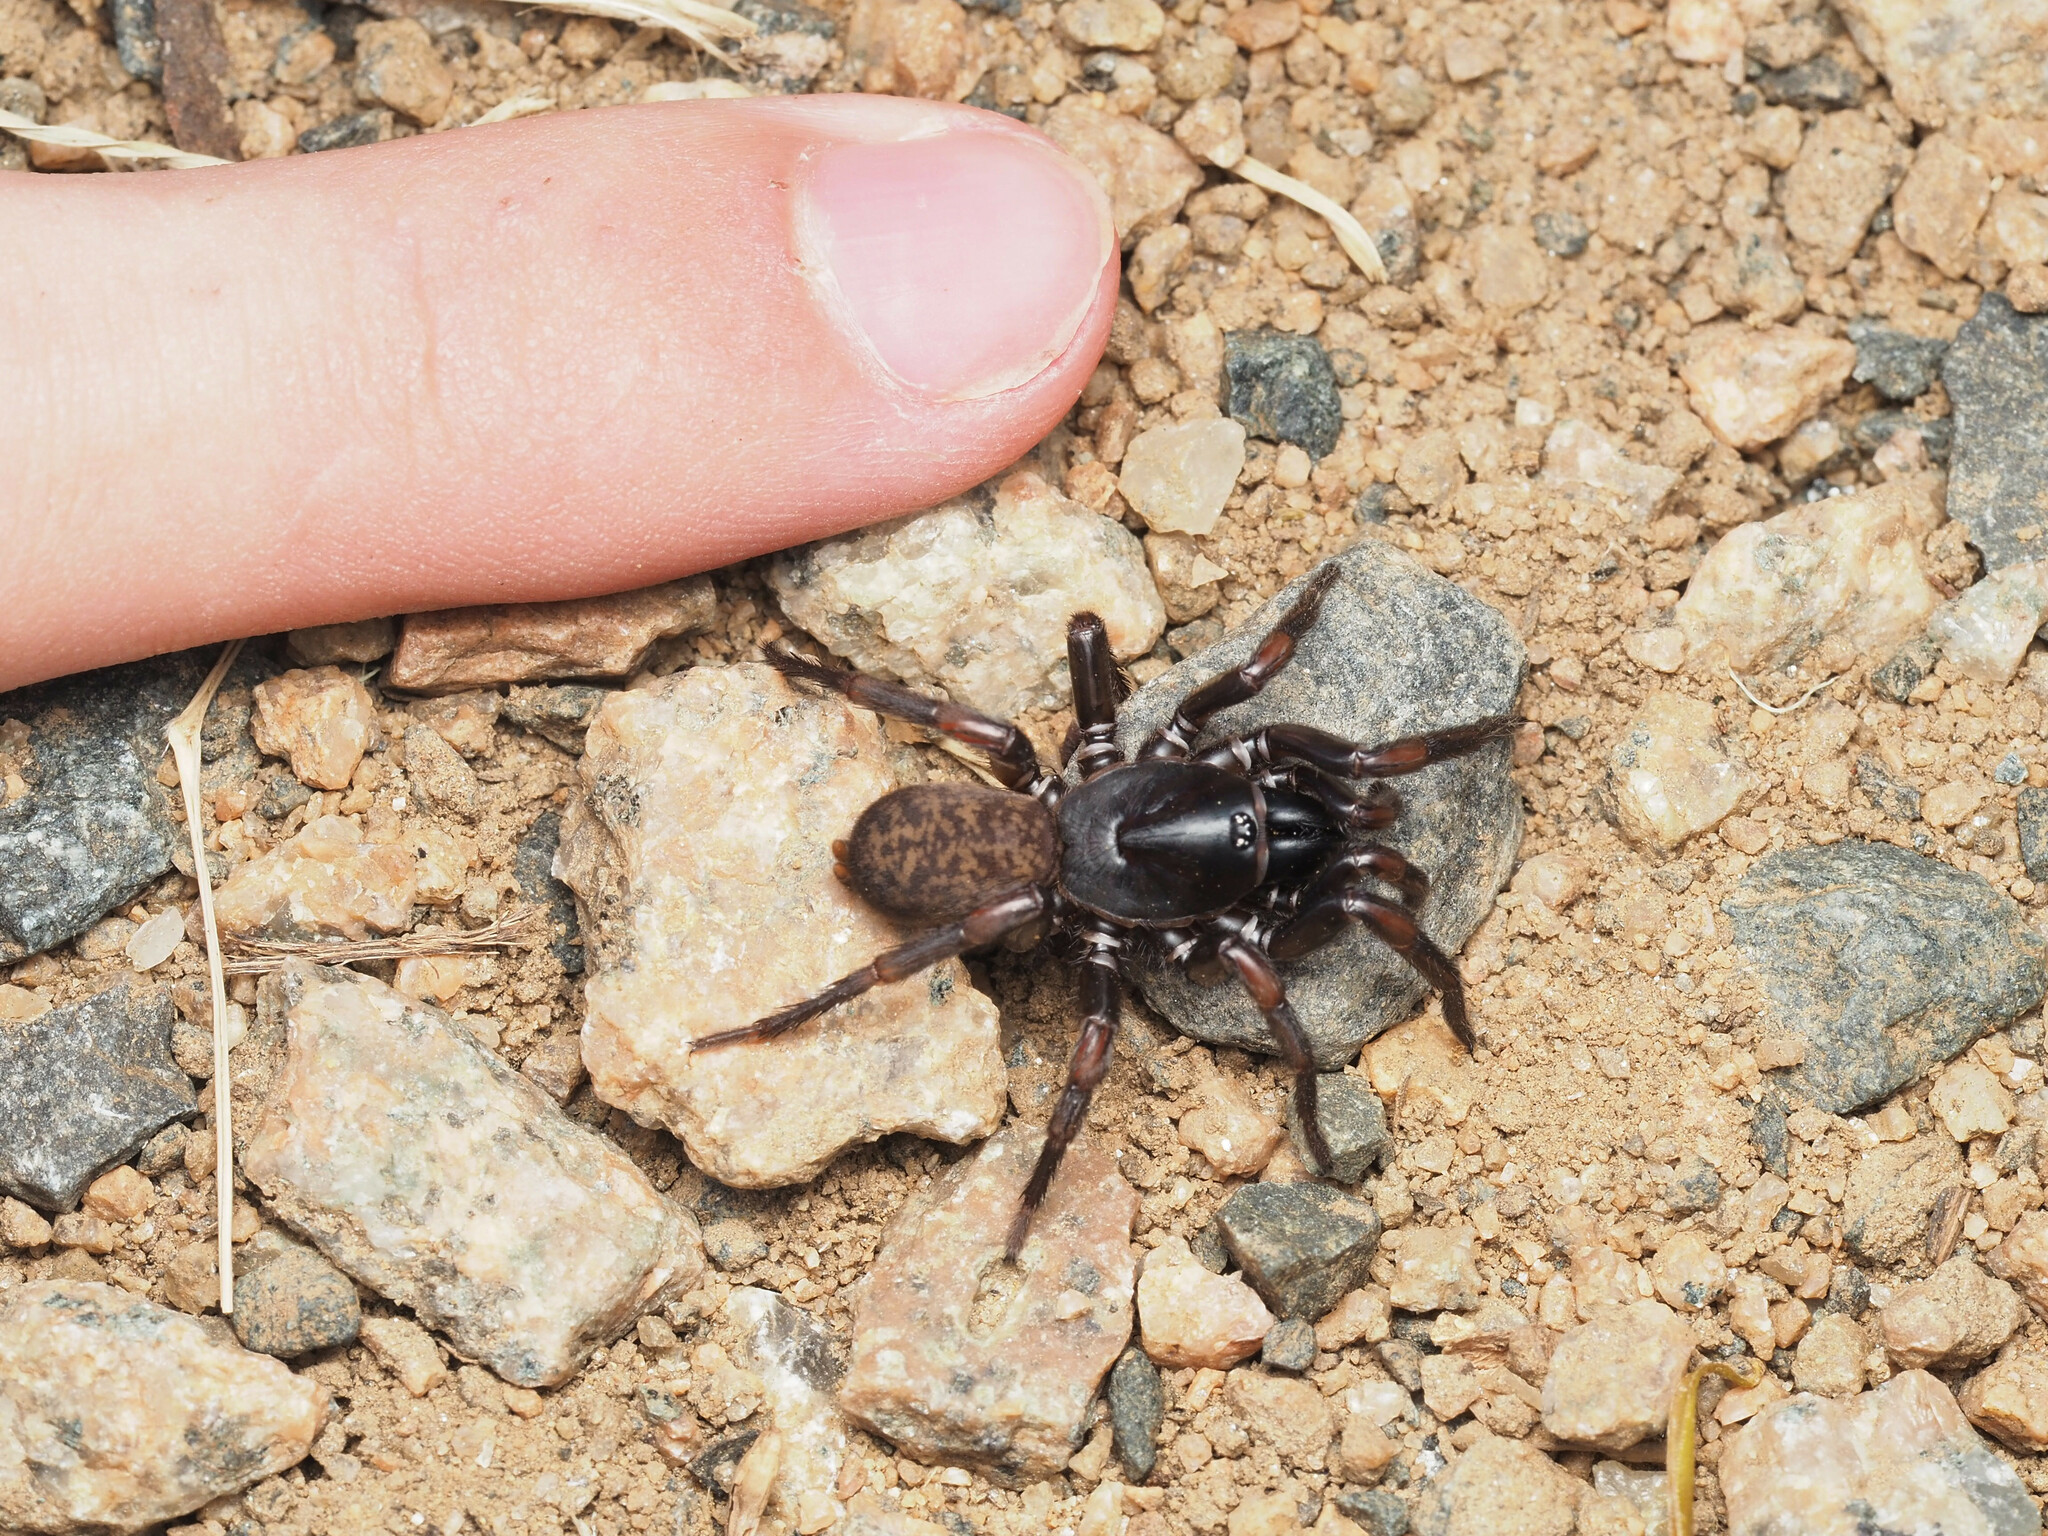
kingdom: Animalia
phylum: Arthropoda
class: Arachnida
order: Araneae
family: Anamidae
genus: Namea
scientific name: Namea
